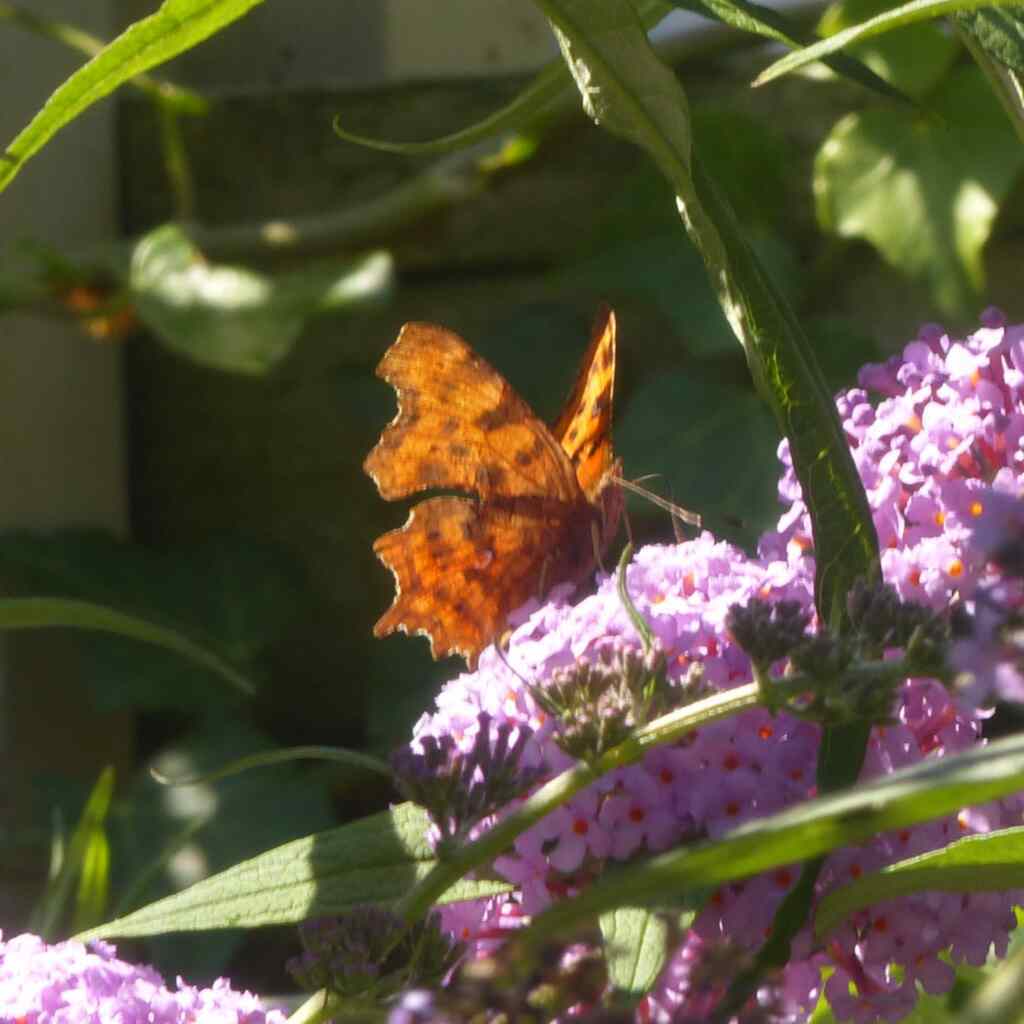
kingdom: Animalia
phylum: Arthropoda
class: Insecta
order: Lepidoptera
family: Nymphalidae
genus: Polygonia
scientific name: Polygonia c-album
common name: Comma
